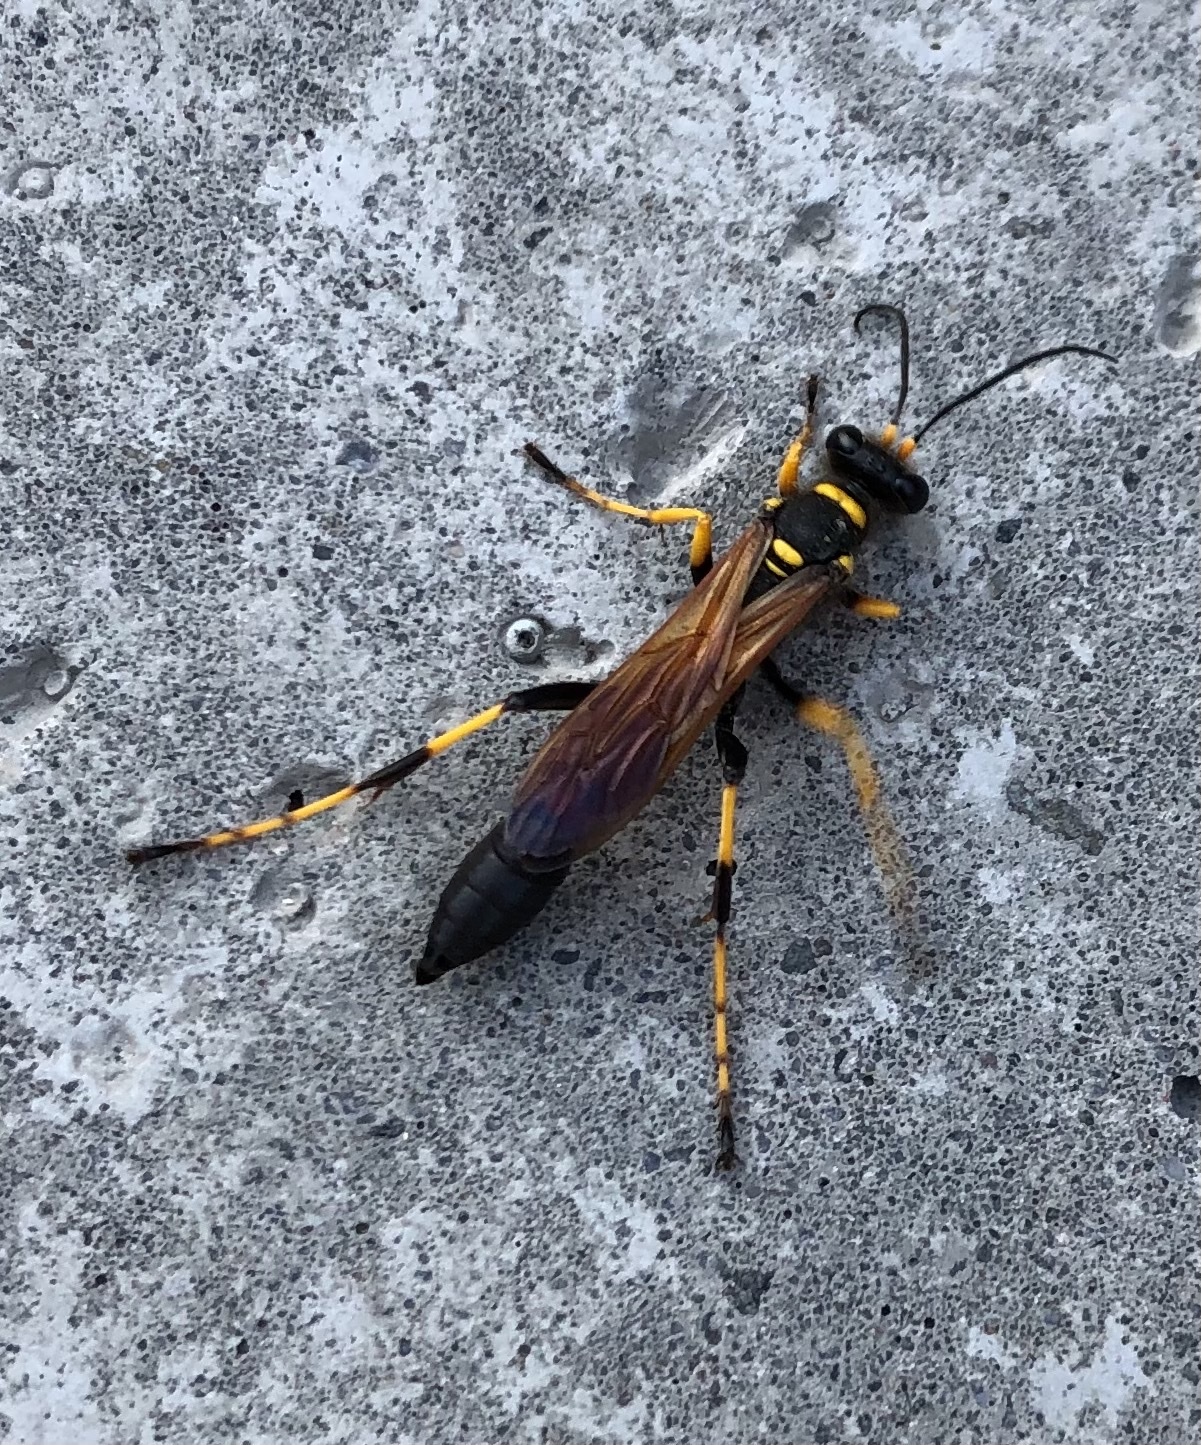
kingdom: Animalia
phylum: Arthropoda
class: Insecta
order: Hymenoptera
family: Sphecidae
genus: Sceliphron
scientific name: Sceliphron caementarium
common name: Mud dauber
